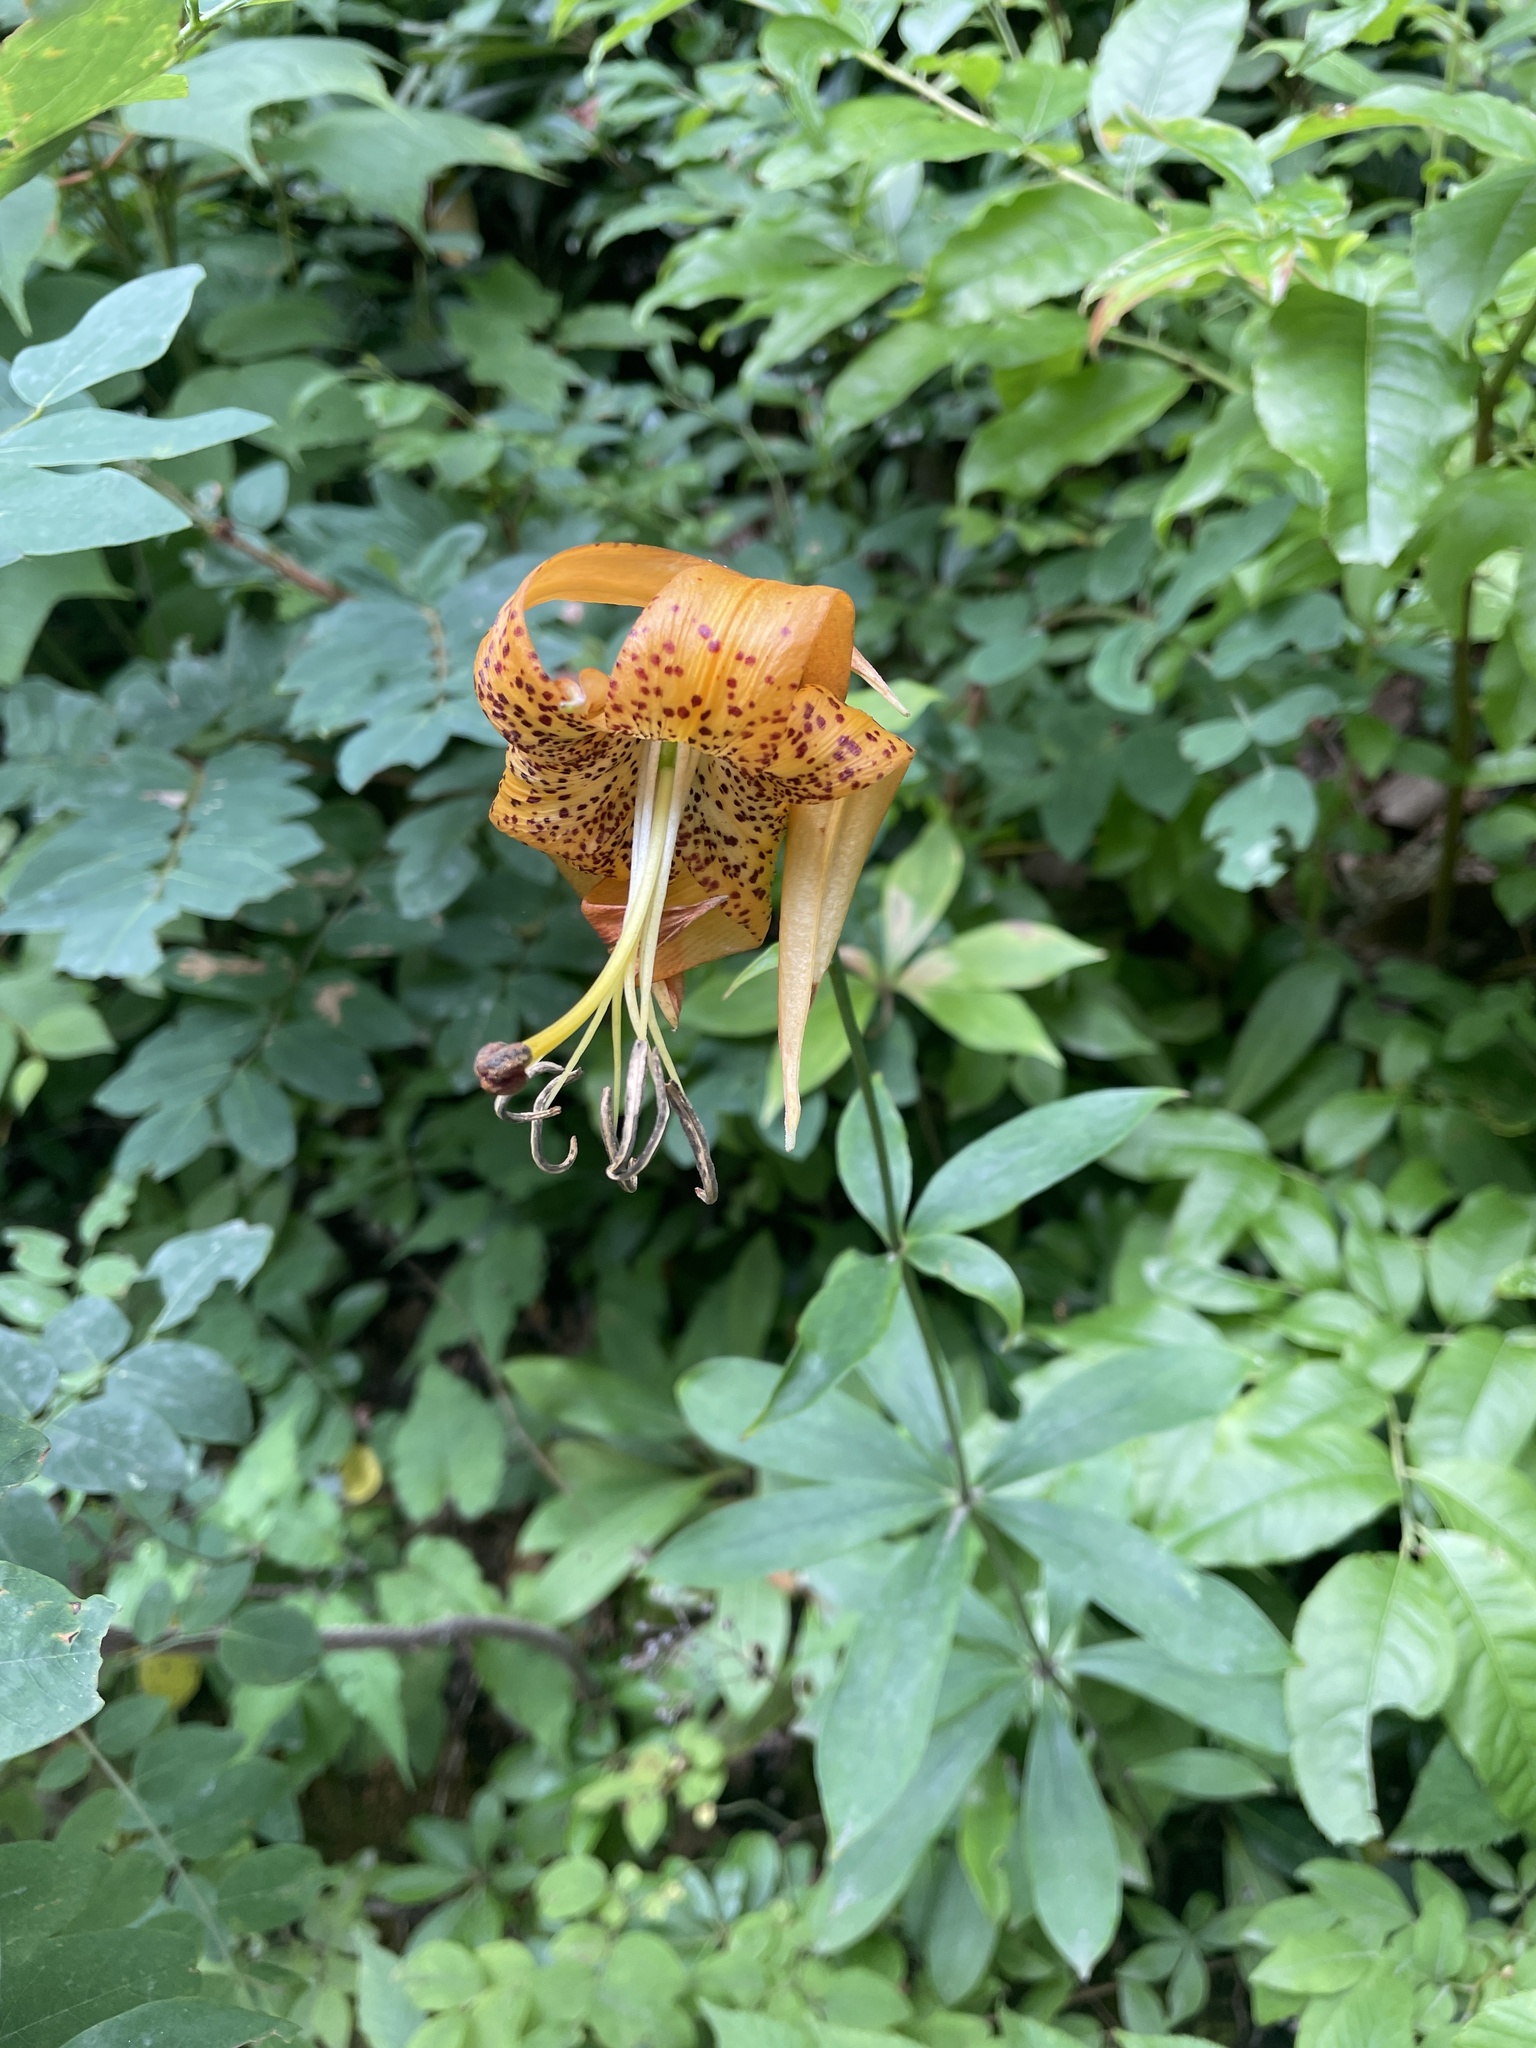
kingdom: Plantae
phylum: Tracheophyta
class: Liliopsida
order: Liliales
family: Liliaceae
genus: Lilium
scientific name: Lilium michauxii
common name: Carolina lily
